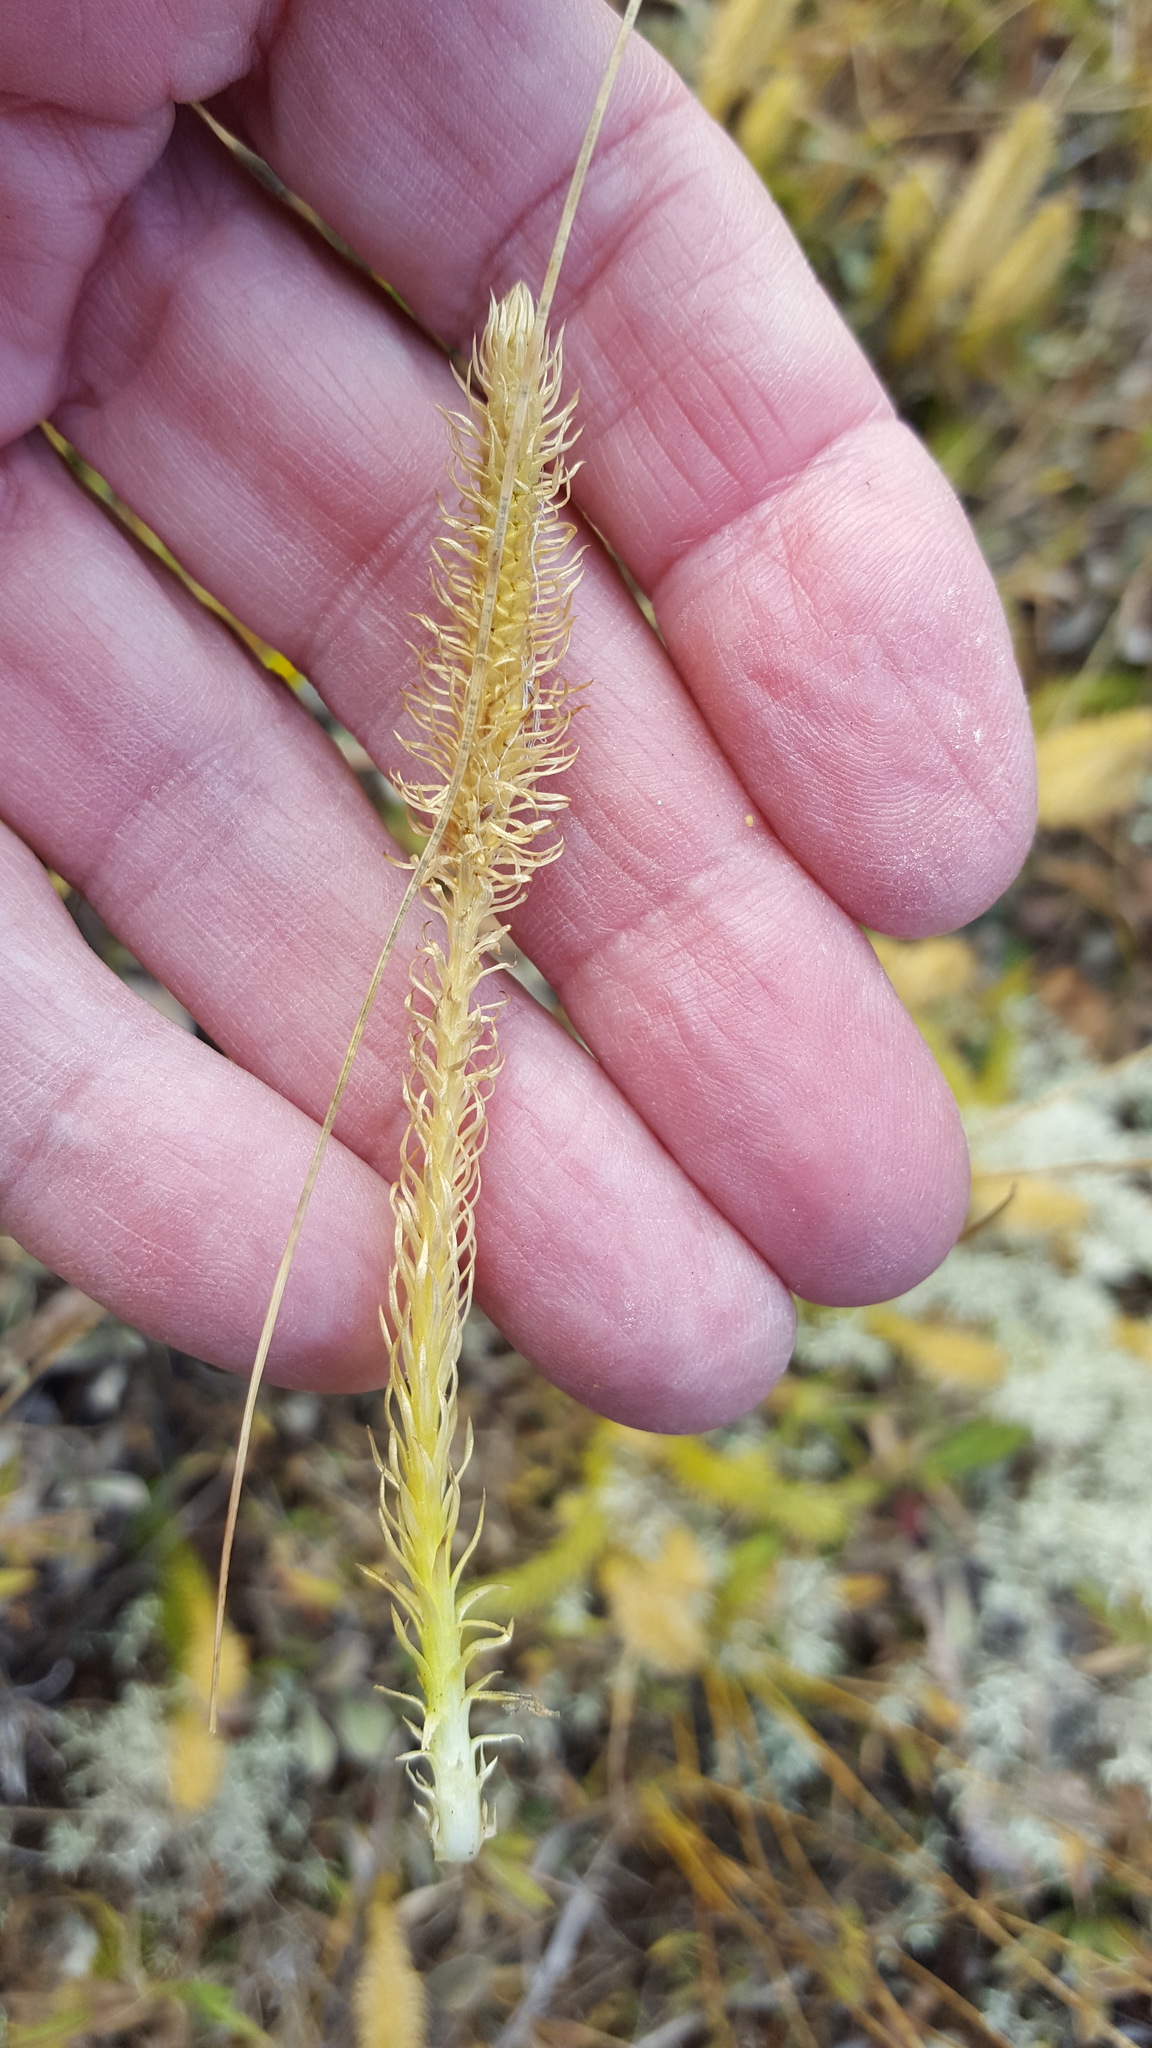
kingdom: Plantae
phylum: Tracheophyta
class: Lycopodiopsida
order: Lycopodiales
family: Lycopodiaceae
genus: Lycopodiella
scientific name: Lycopodiella inundata
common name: Marsh clubmoss
